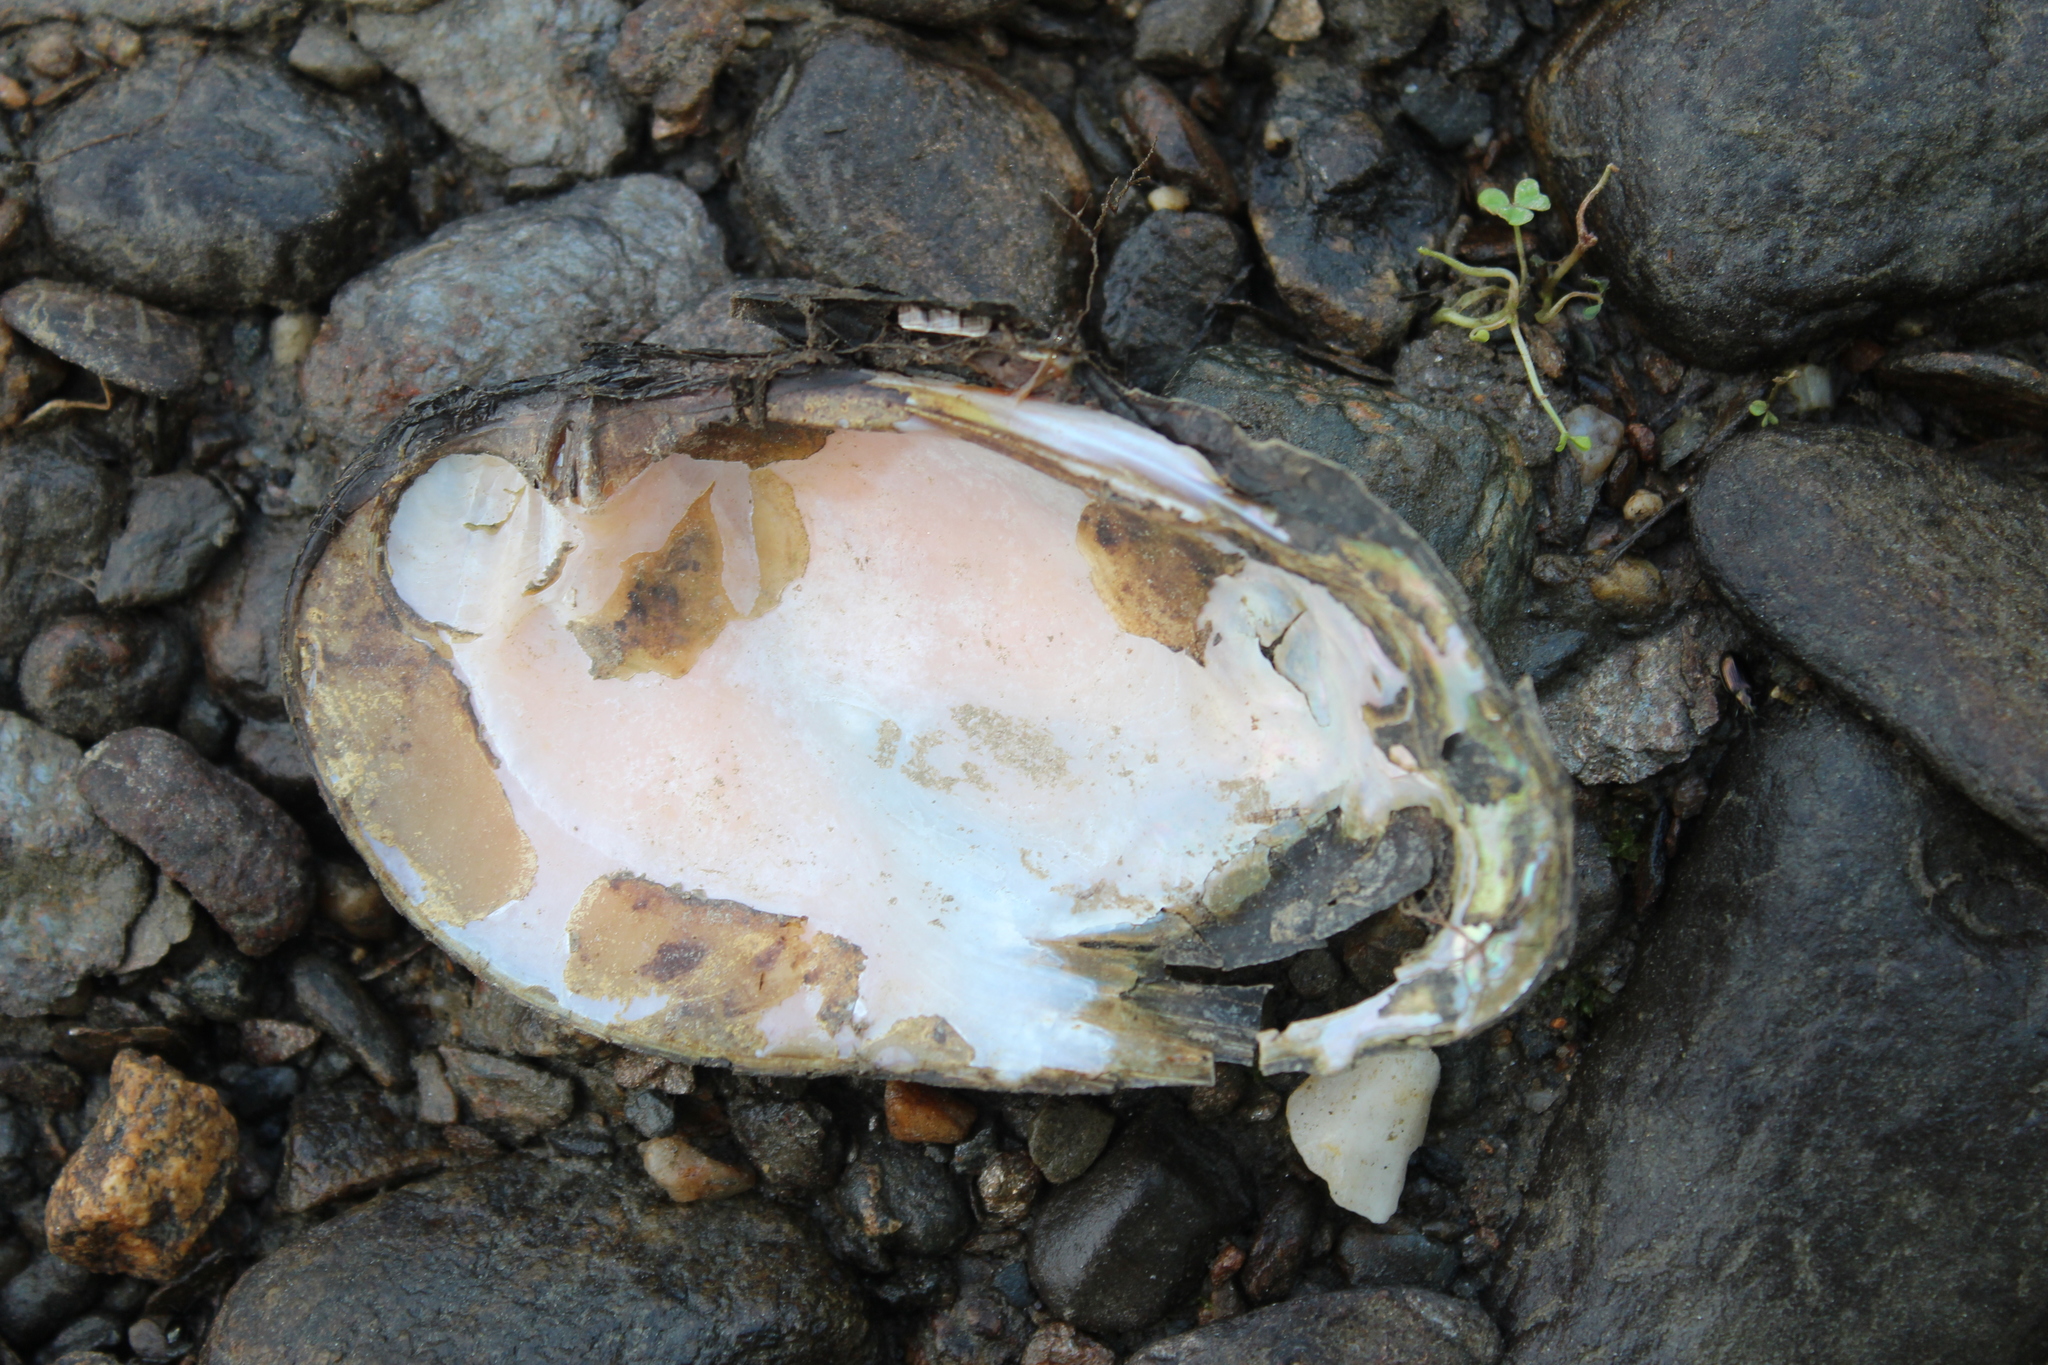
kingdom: Animalia
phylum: Mollusca
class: Bivalvia
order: Unionida
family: Unionidae
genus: Elliptio
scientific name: Elliptio complanata
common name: Eastern elliptio
